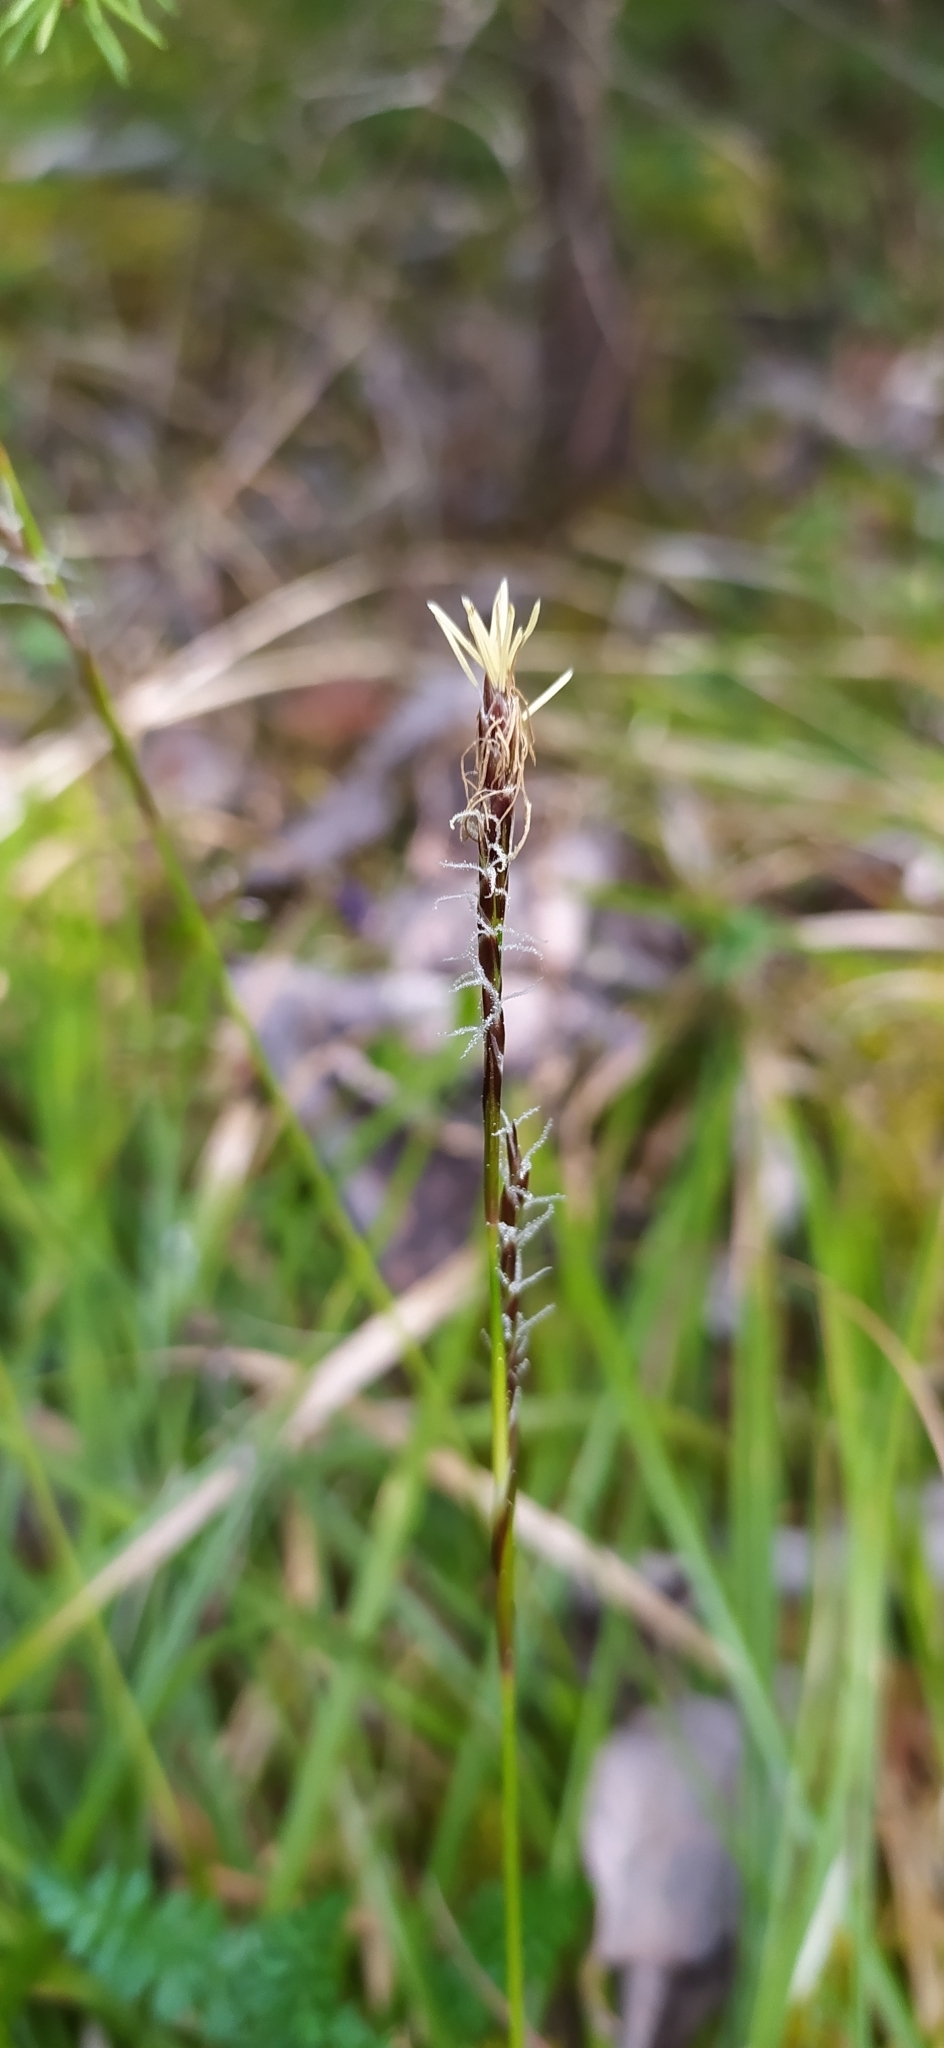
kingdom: Plantae
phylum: Tracheophyta
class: Liliopsida
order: Poales
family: Cyperaceae
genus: Carex
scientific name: Carex rhizina
